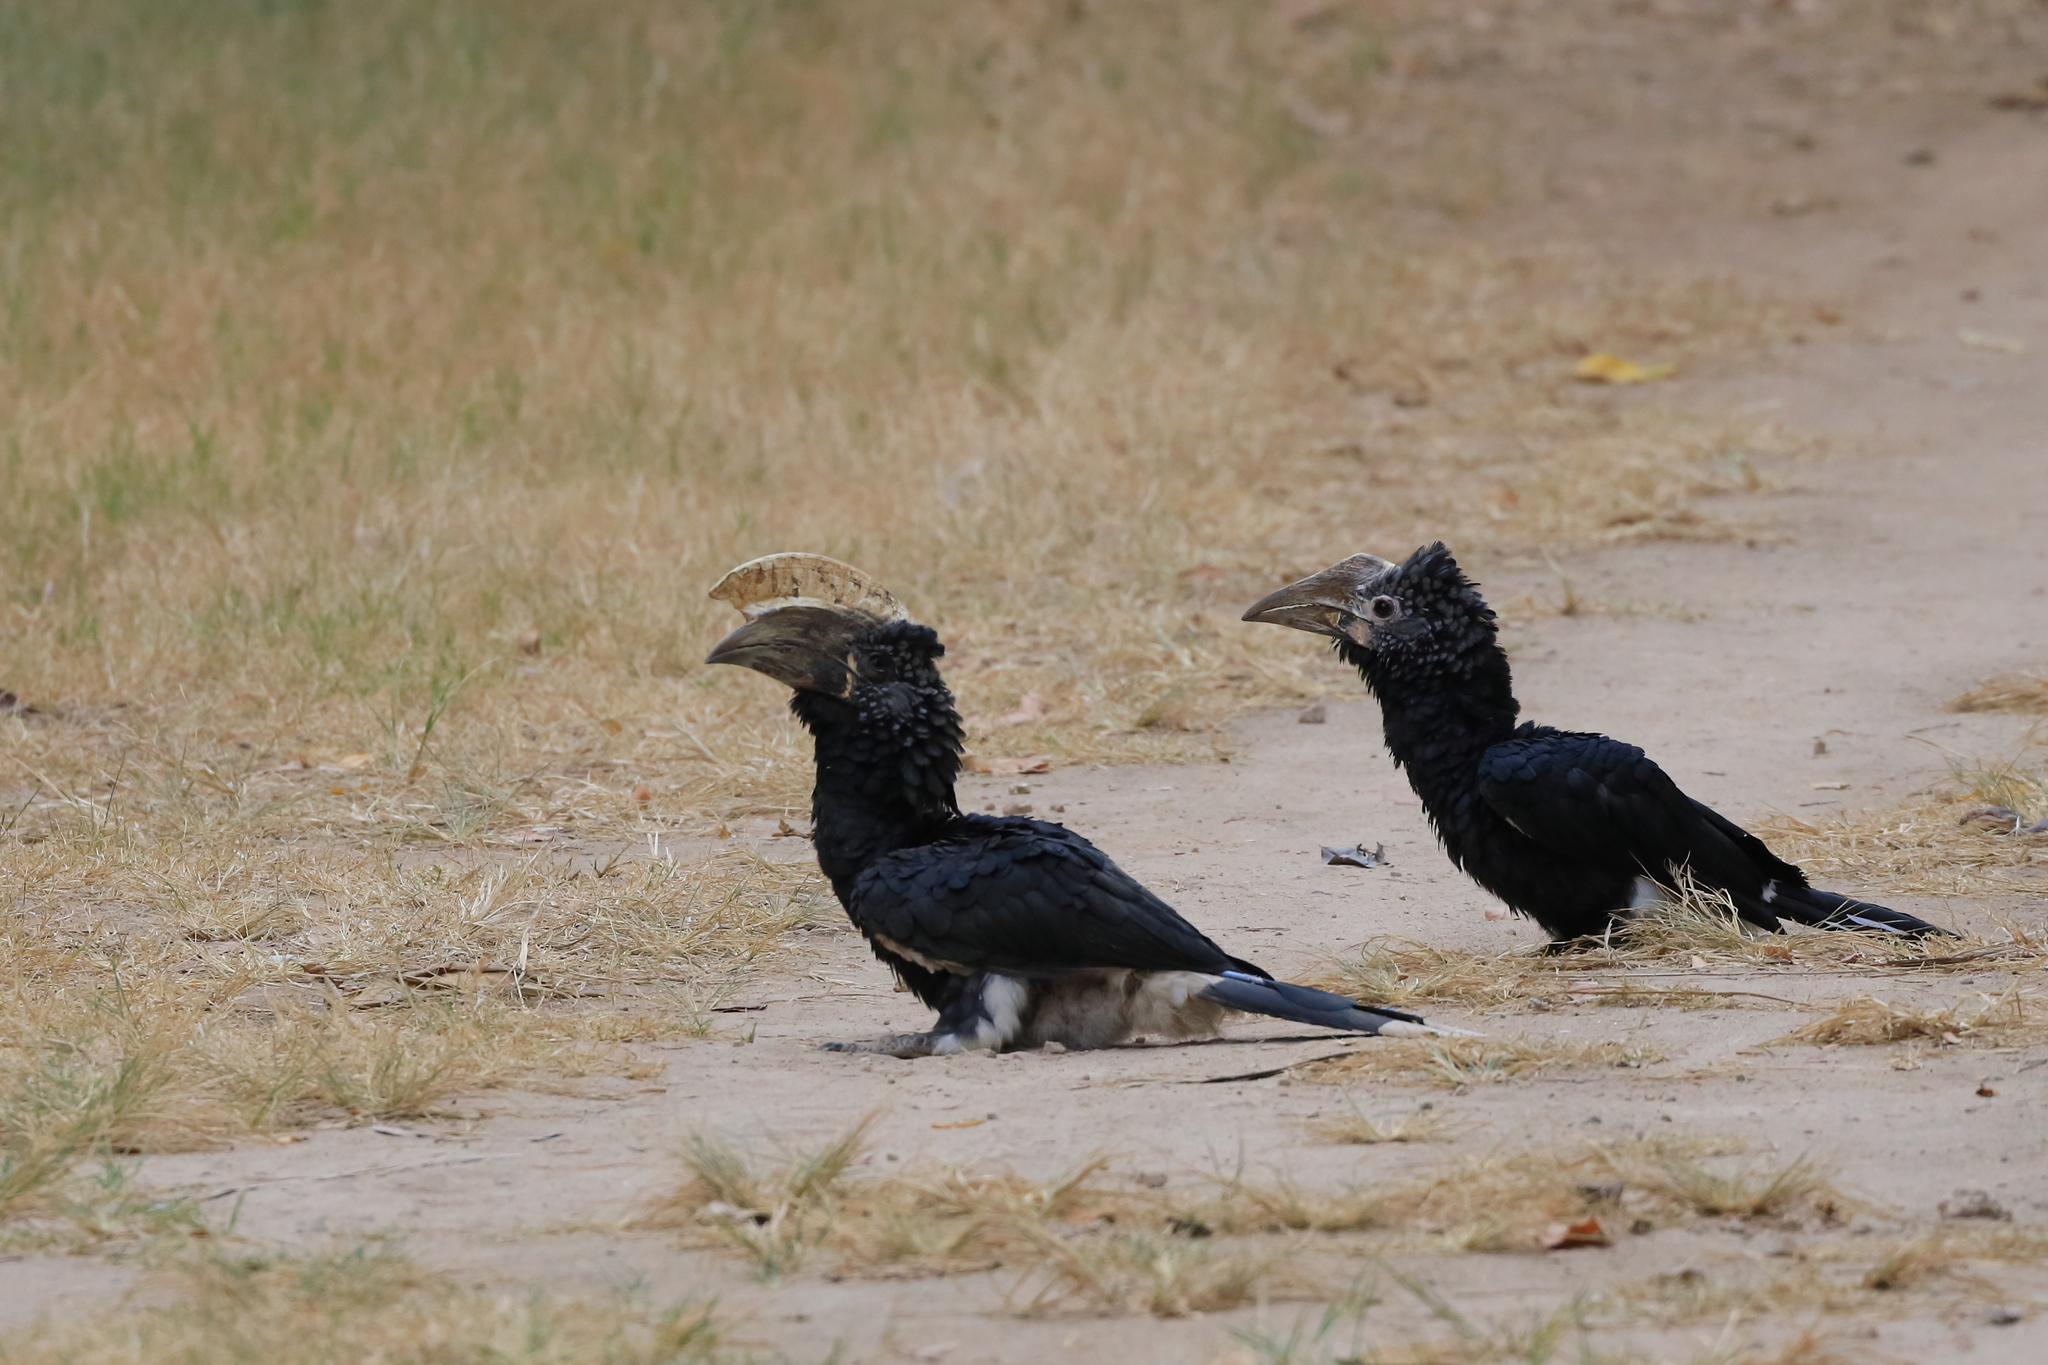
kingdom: Animalia
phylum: Chordata
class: Aves
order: Bucerotiformes
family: Bucerotidae
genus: Bycanistes
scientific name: Bycanistes brevis
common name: Silvery-cheeked hornbill
